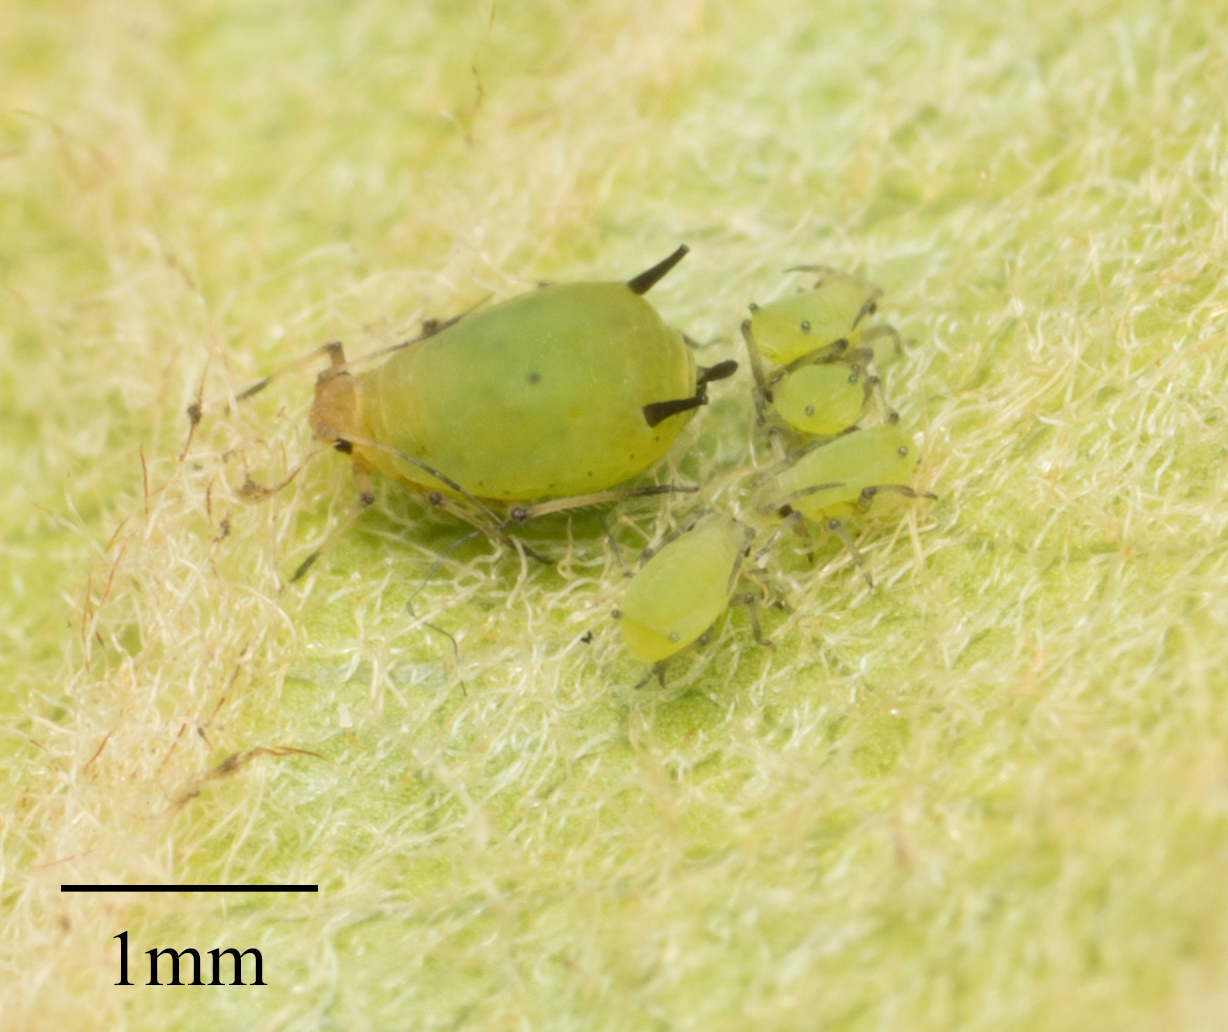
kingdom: Animalia
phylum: Arthropoda
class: Insecta
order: Hemiptera
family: Aphididae
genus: Aphis
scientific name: Aphis spiraecola
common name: Spirea aphid
